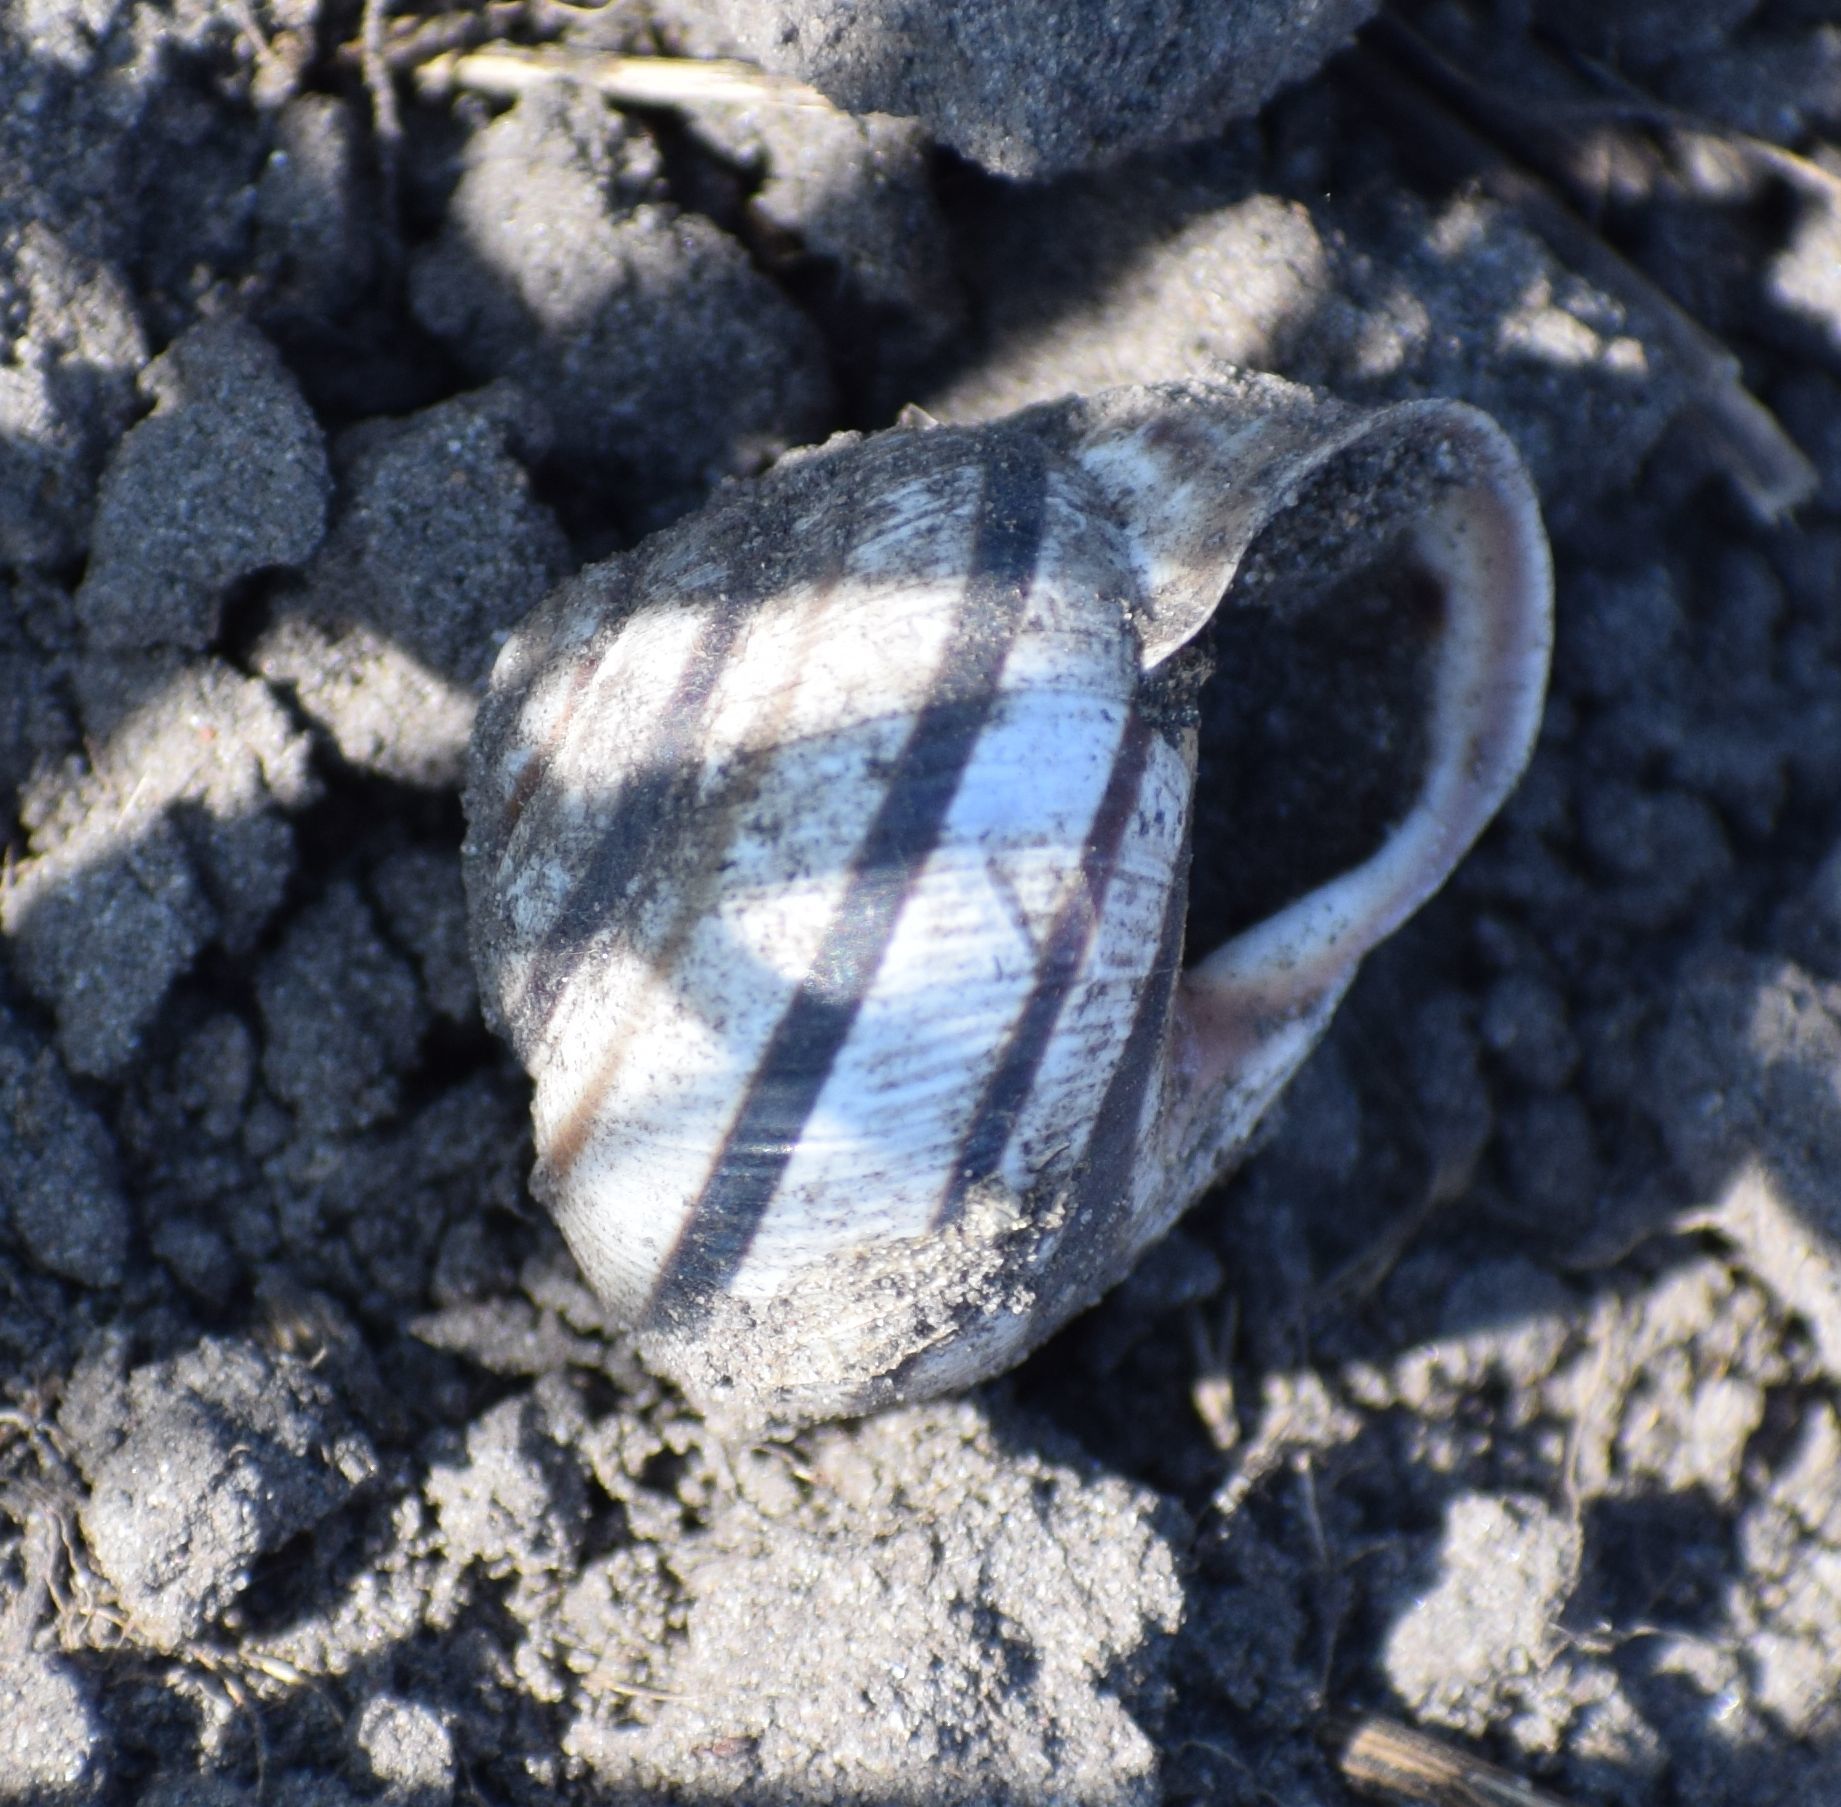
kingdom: Animalia
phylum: Mollusca
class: Gastropoda
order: Stylommatophora
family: Helicidae
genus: Caucasotachea
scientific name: Caucasotachea vindobonensis
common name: European helicid land snail
